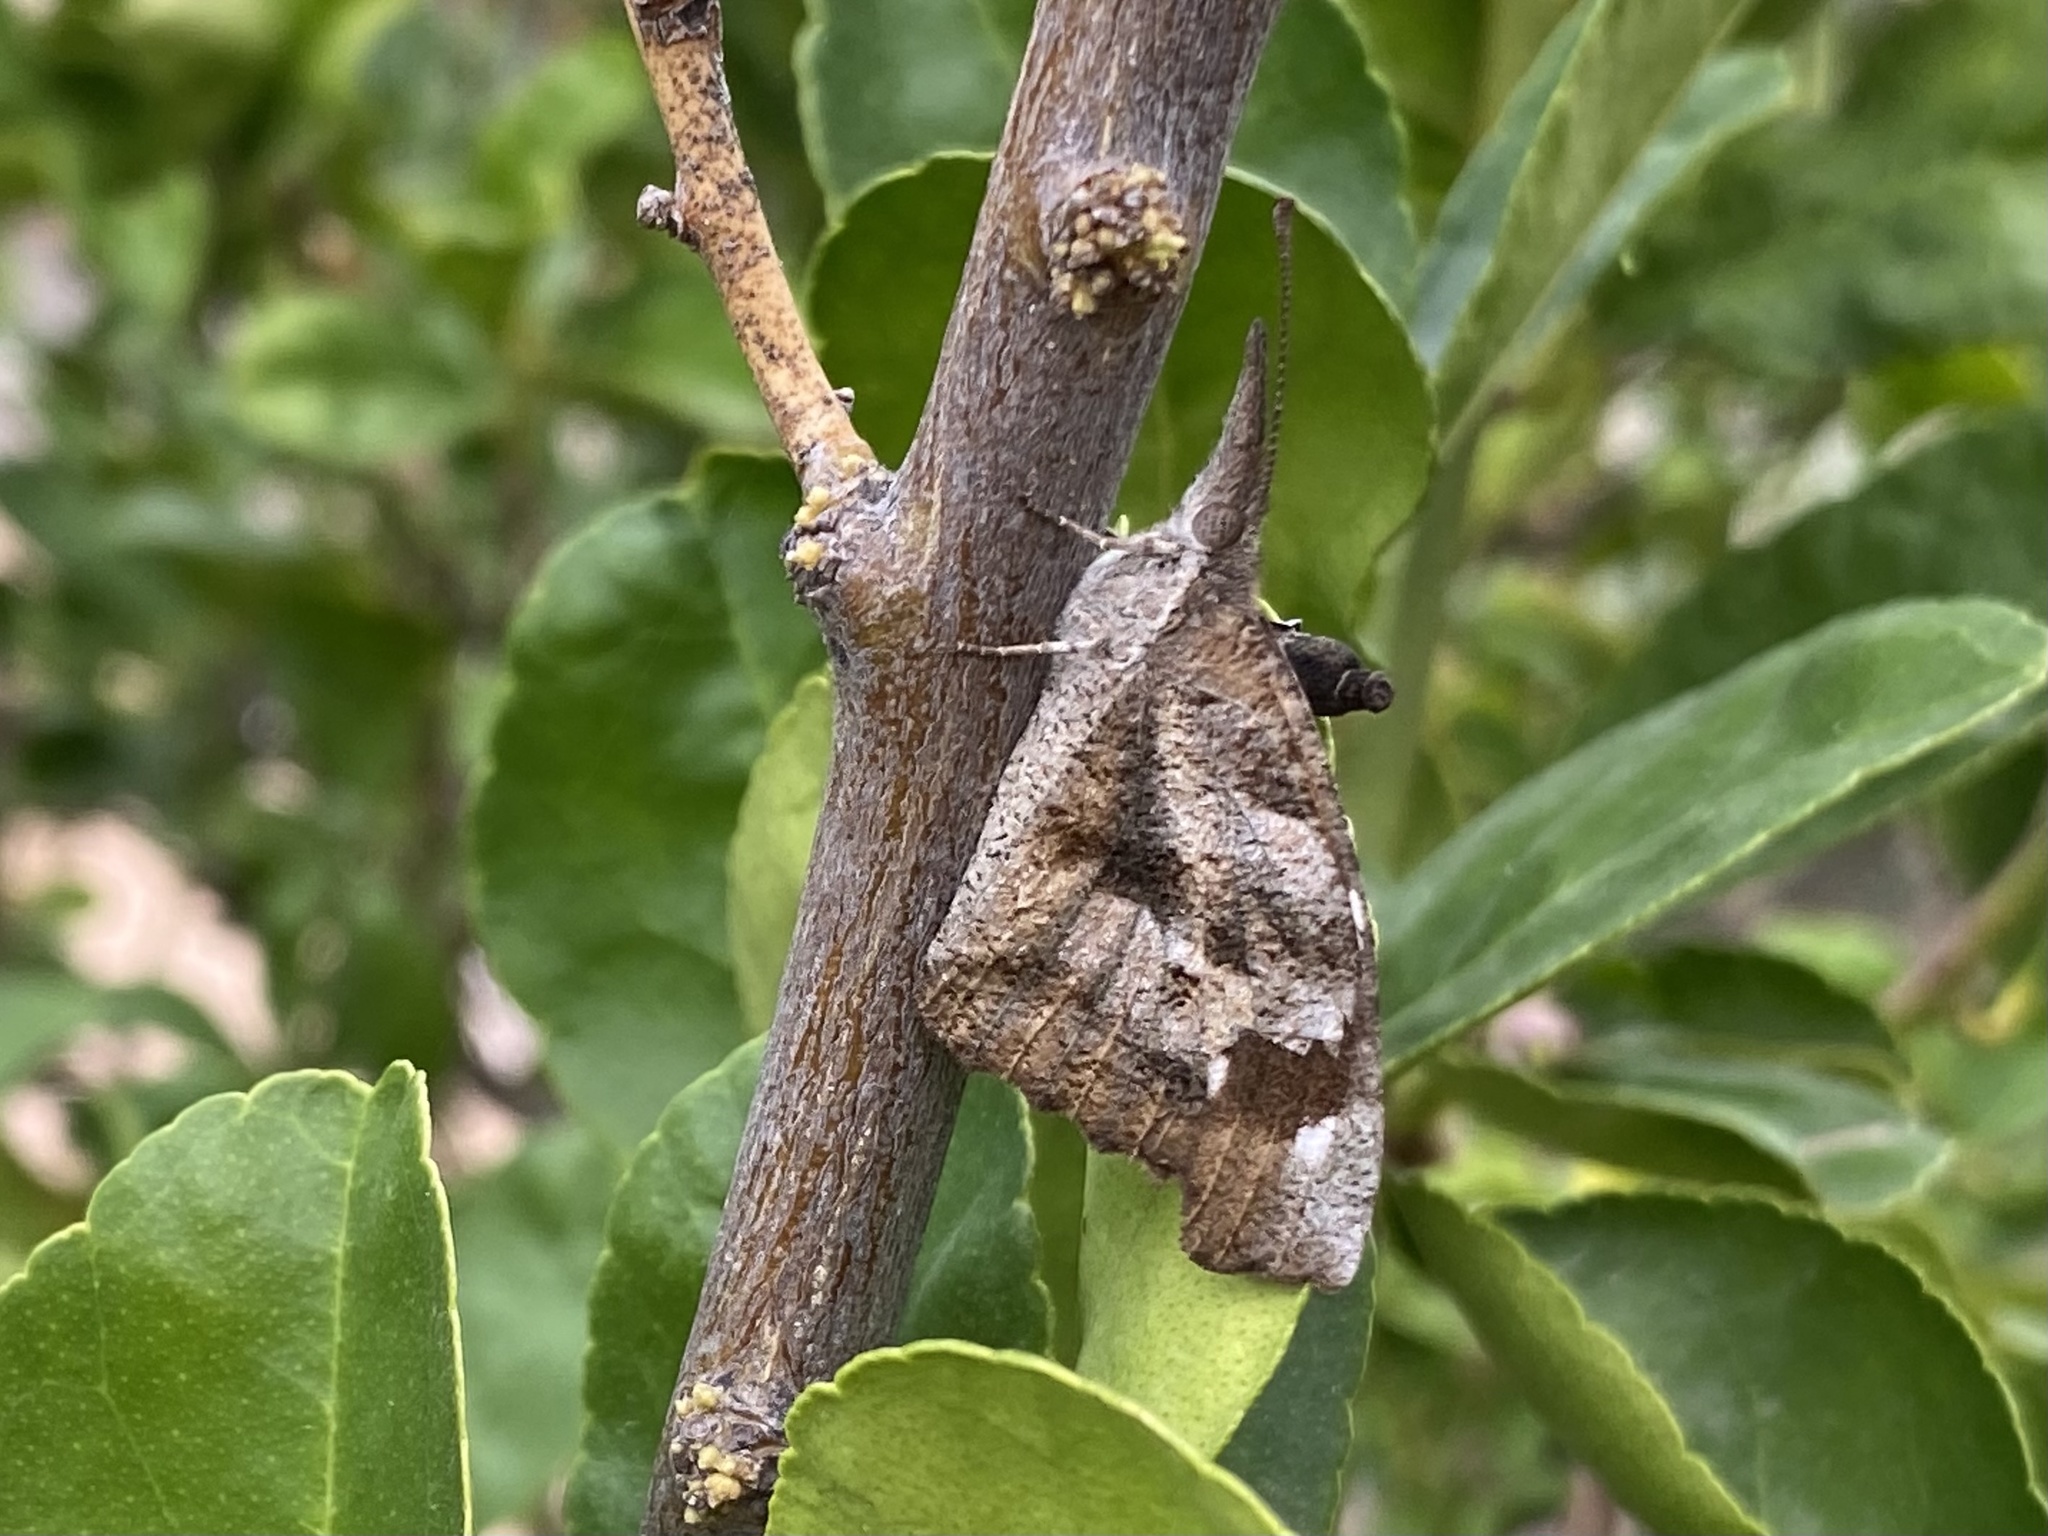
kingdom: Animalia
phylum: Arthropoda
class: Insecta
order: Lepidoptera
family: Nymphalidae
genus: Libytheana
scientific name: Libytheana carinenta
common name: American snout
